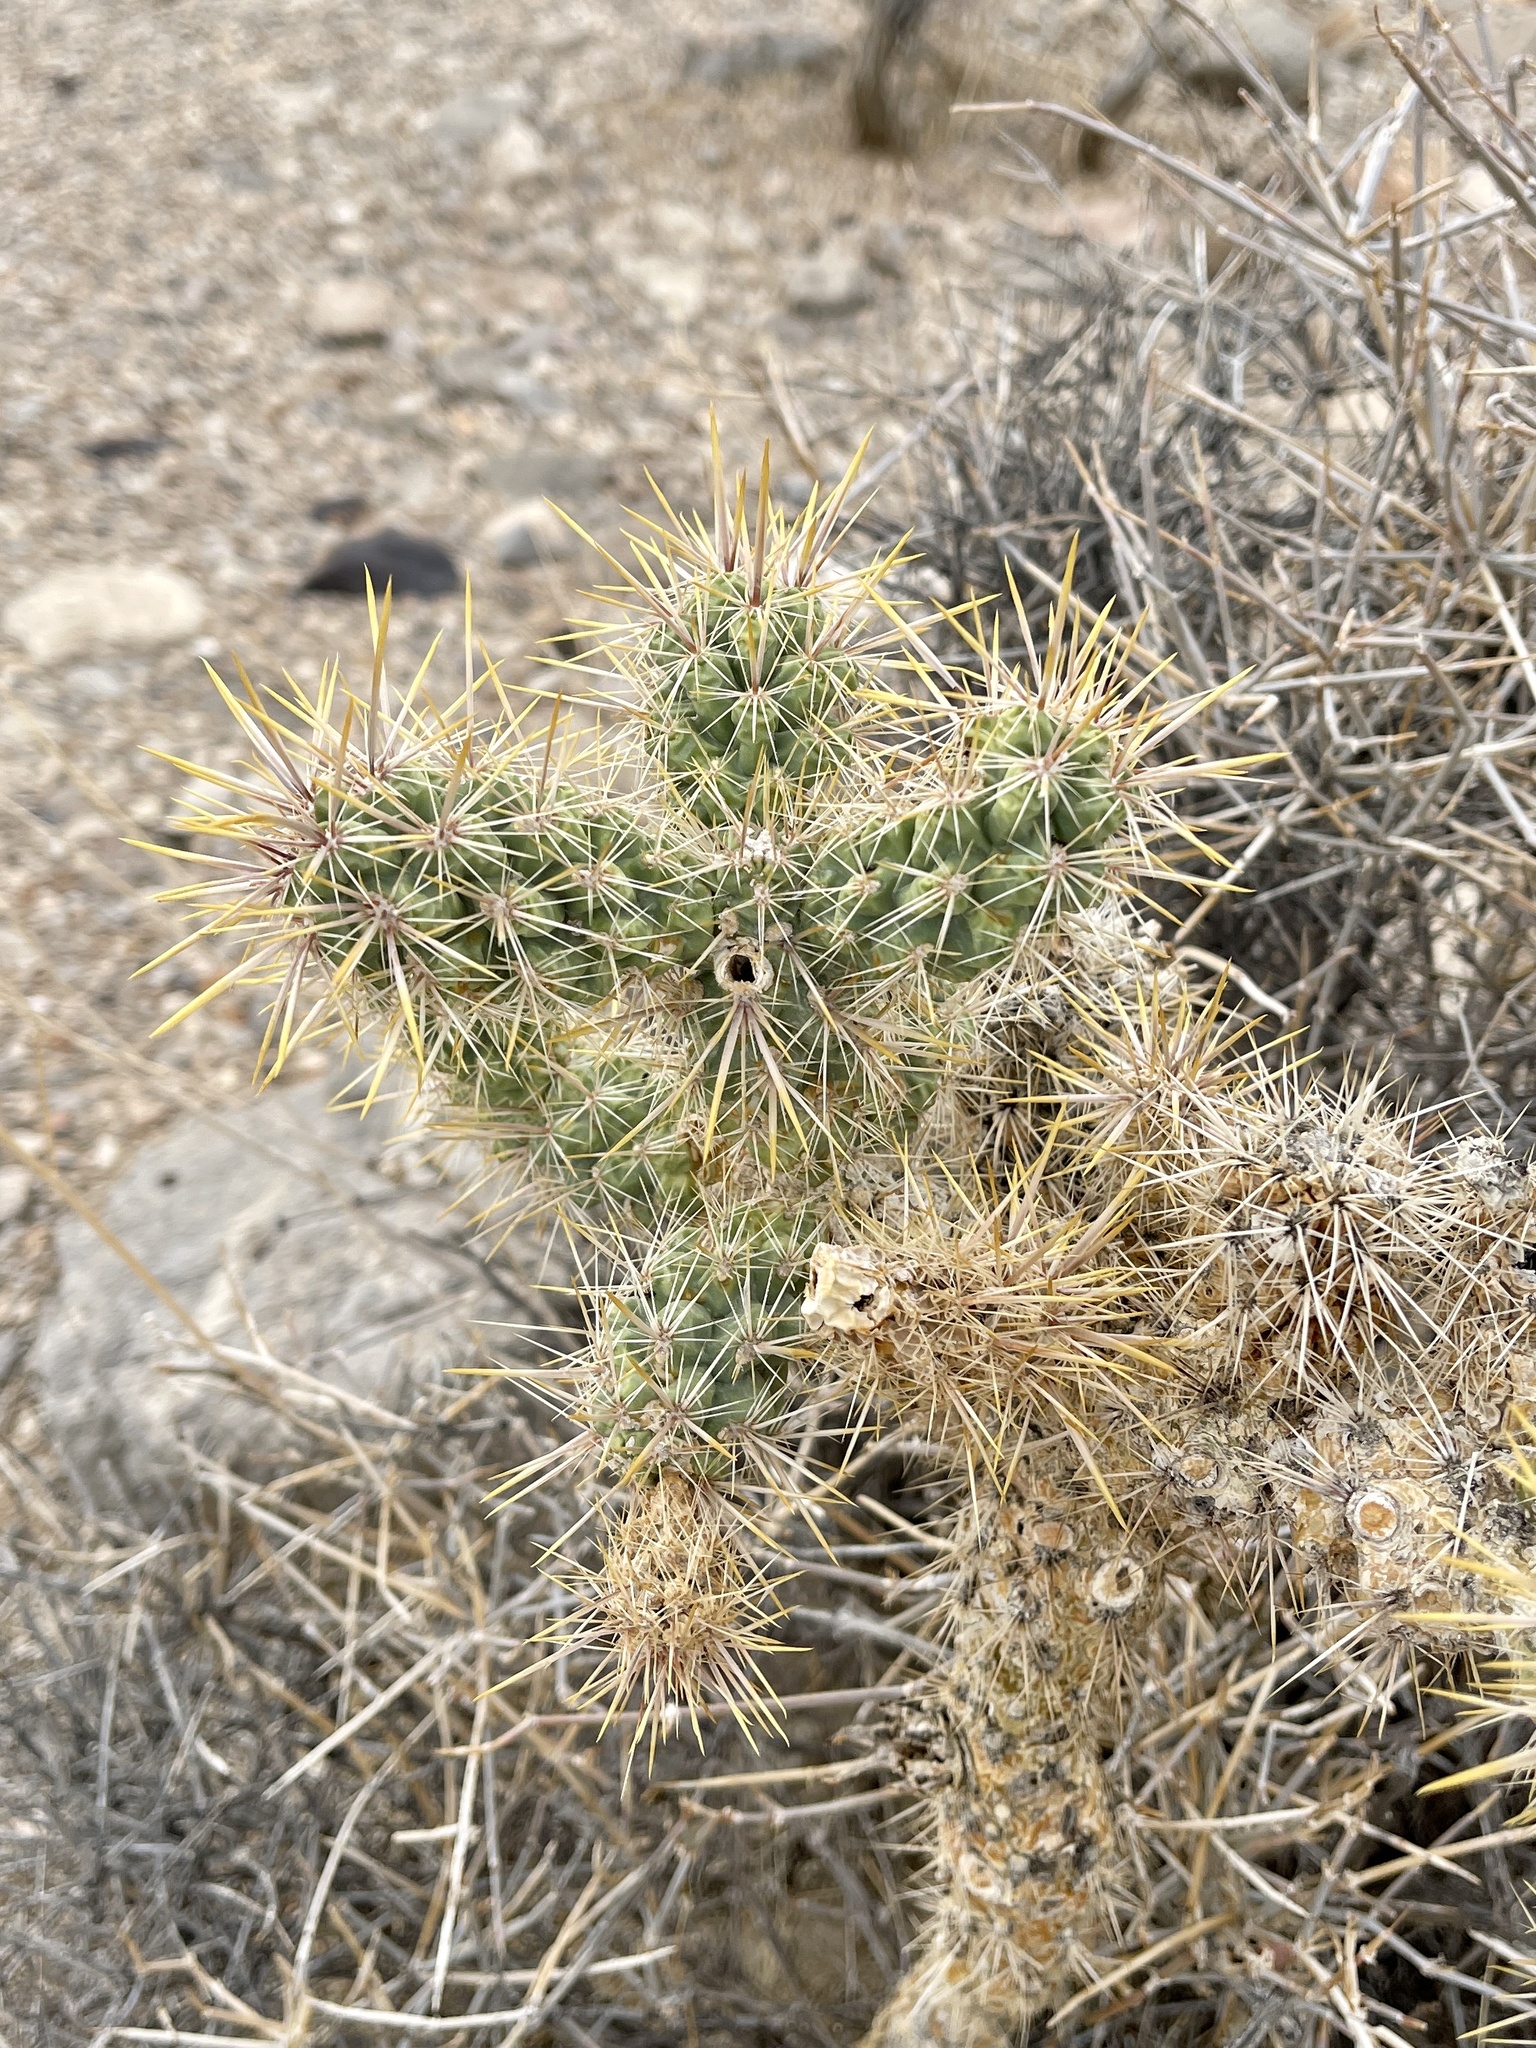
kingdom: Plantae
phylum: Tracheophyta
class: Magnoliopsida
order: Caryophyllales
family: Cactaceae
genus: Cylindropuntia
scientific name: Cylindropuntia echinocarpa
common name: Ground cholla
